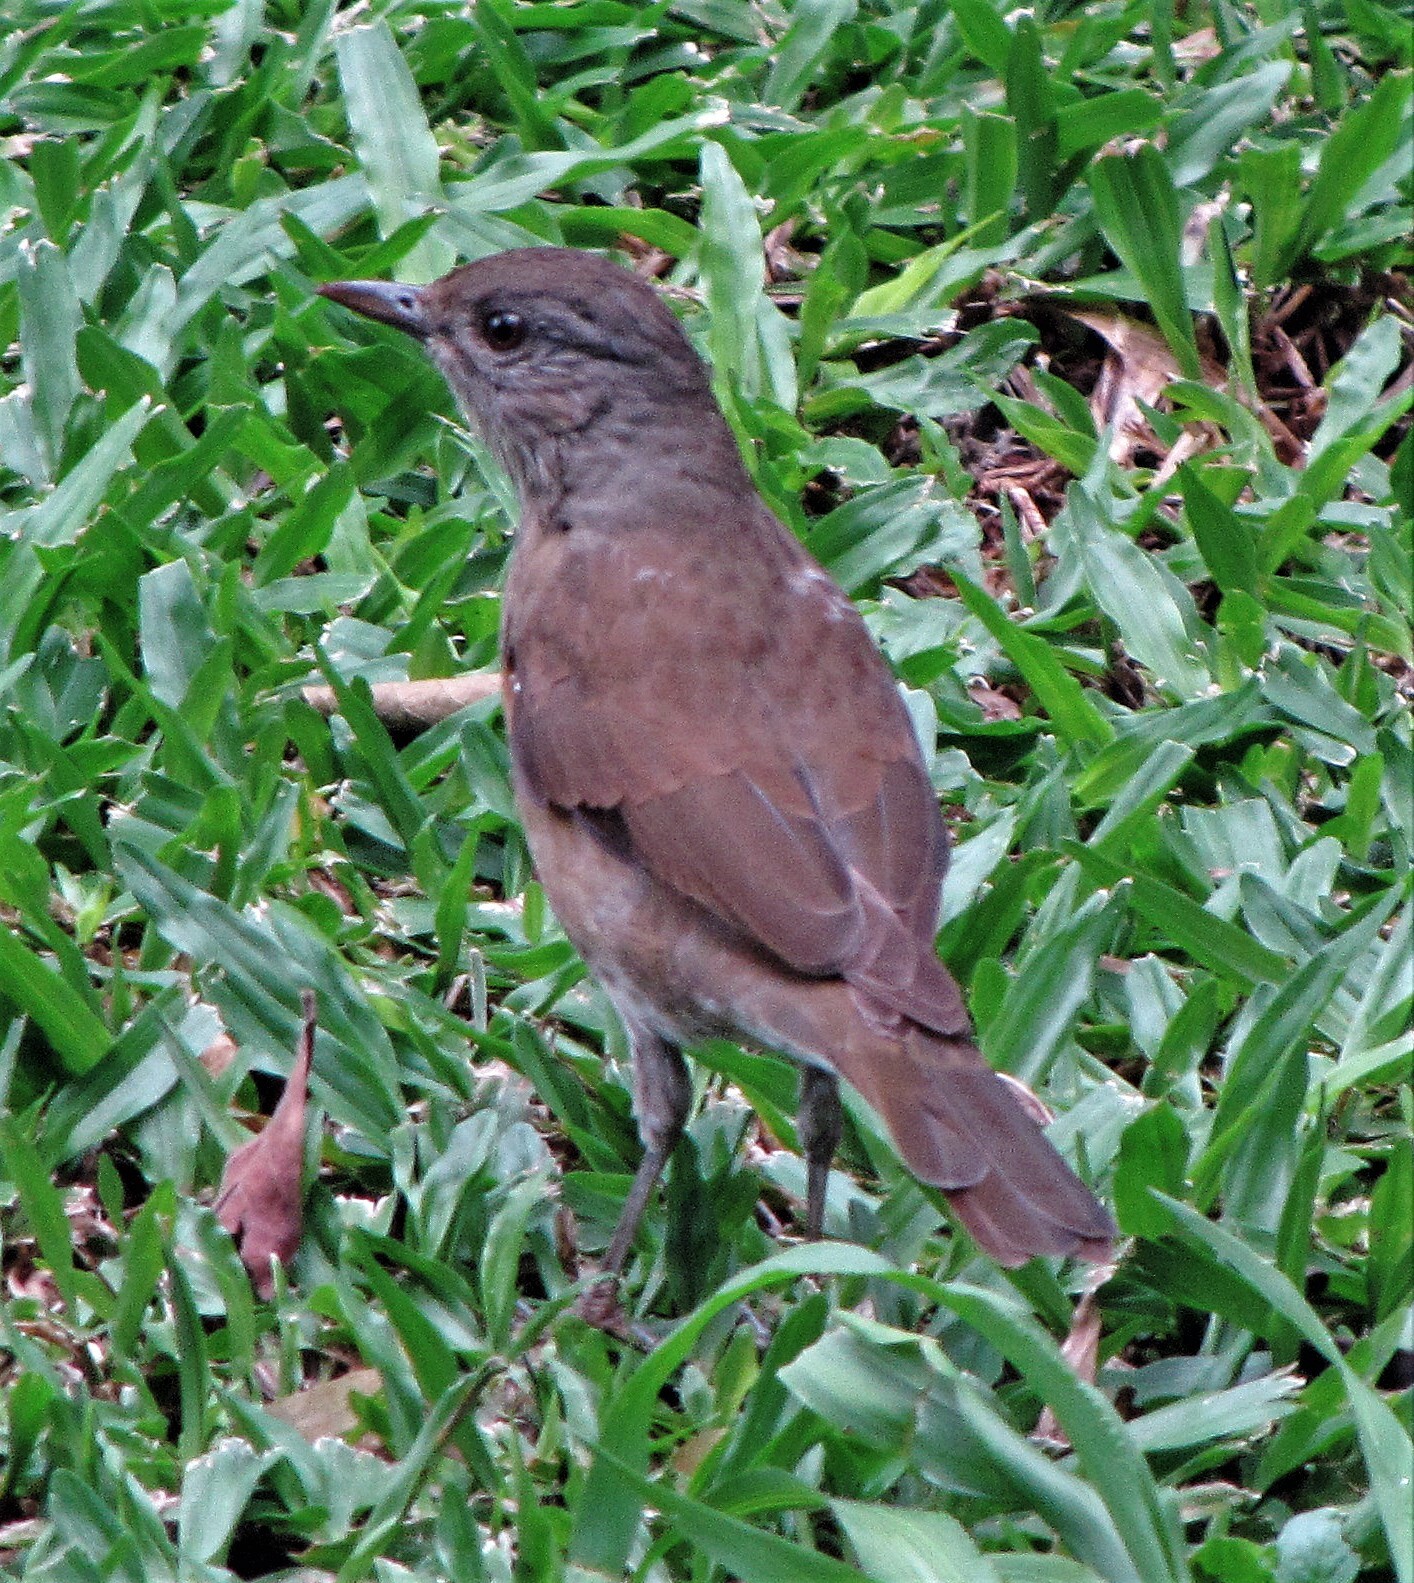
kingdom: Animalia
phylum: Chordata
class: Aves
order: Passeriformes
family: Turdidae
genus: Turdus
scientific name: Turdus leucomelas
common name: Pale-breasted thrush
